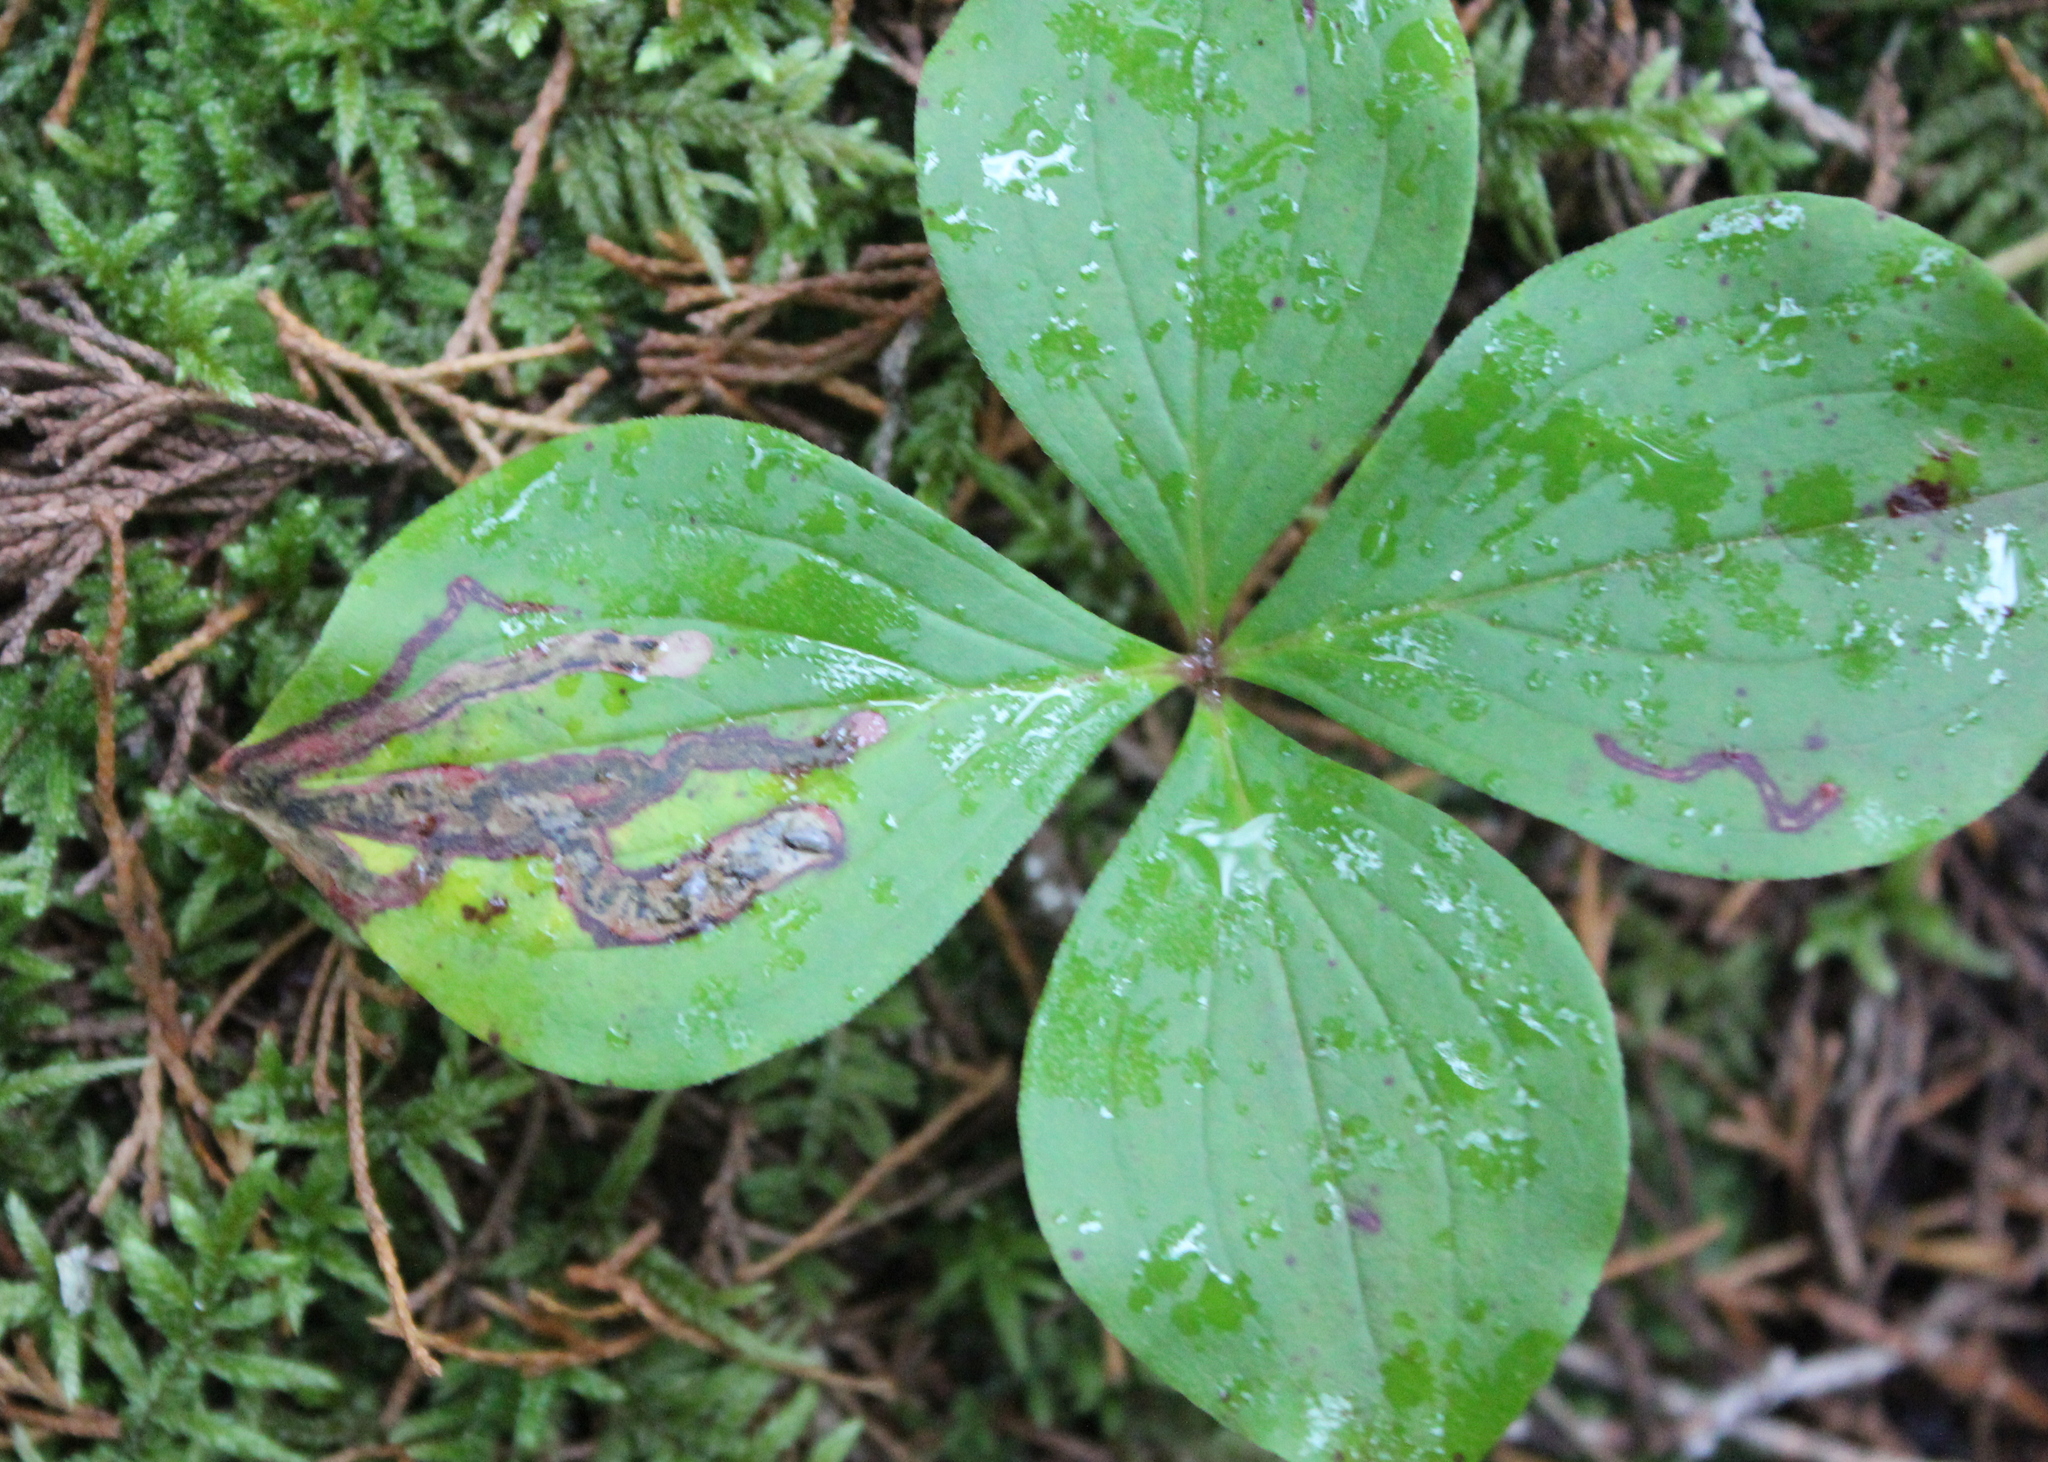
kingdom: Animalia
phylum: Arthropoda
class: Insecta
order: Diptera
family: Agromyzidae
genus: Phytomyza
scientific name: Phytomyza agromyzina
